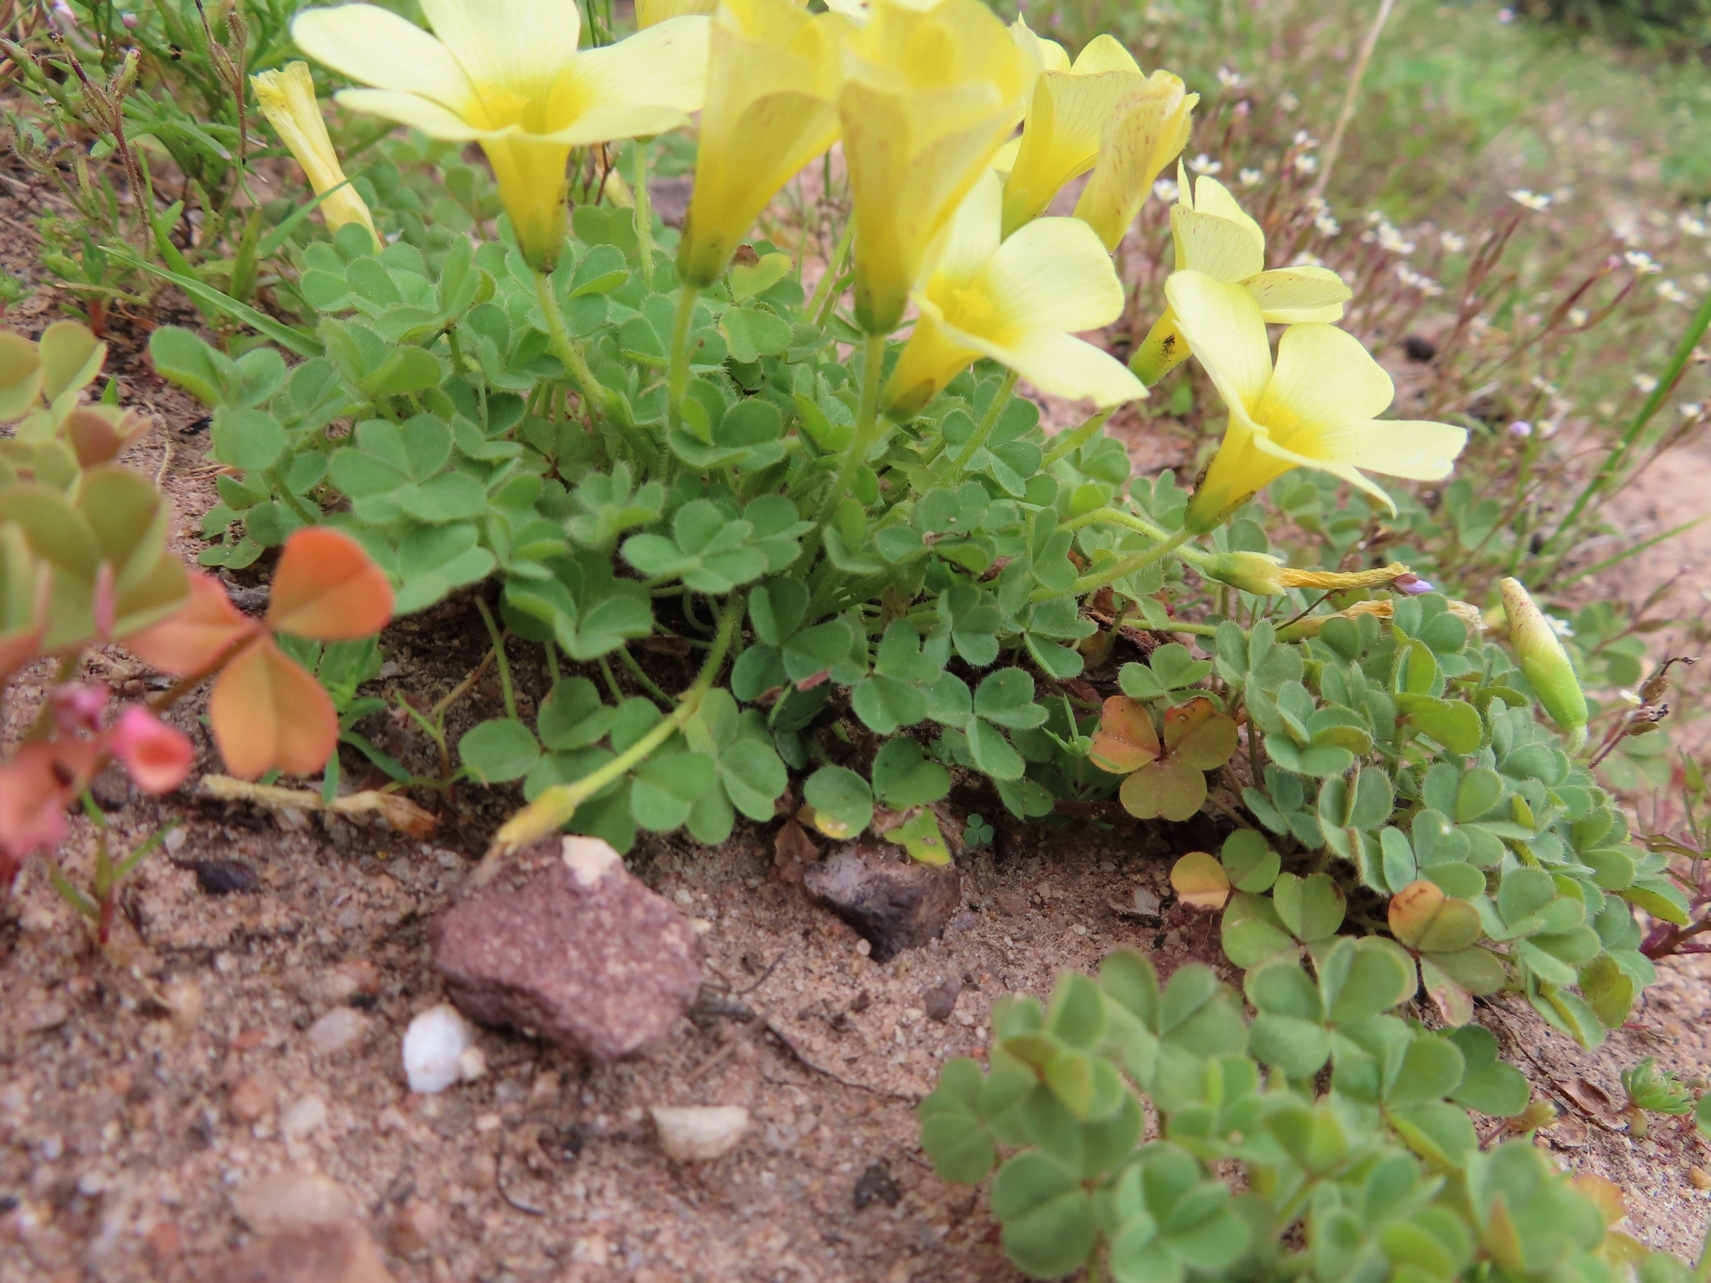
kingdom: Plantae
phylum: Tracheophyta
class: Magnoliopsida
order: Oxalidales
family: Oxalidaceae
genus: Oxalis
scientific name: Oxalis obtusa
